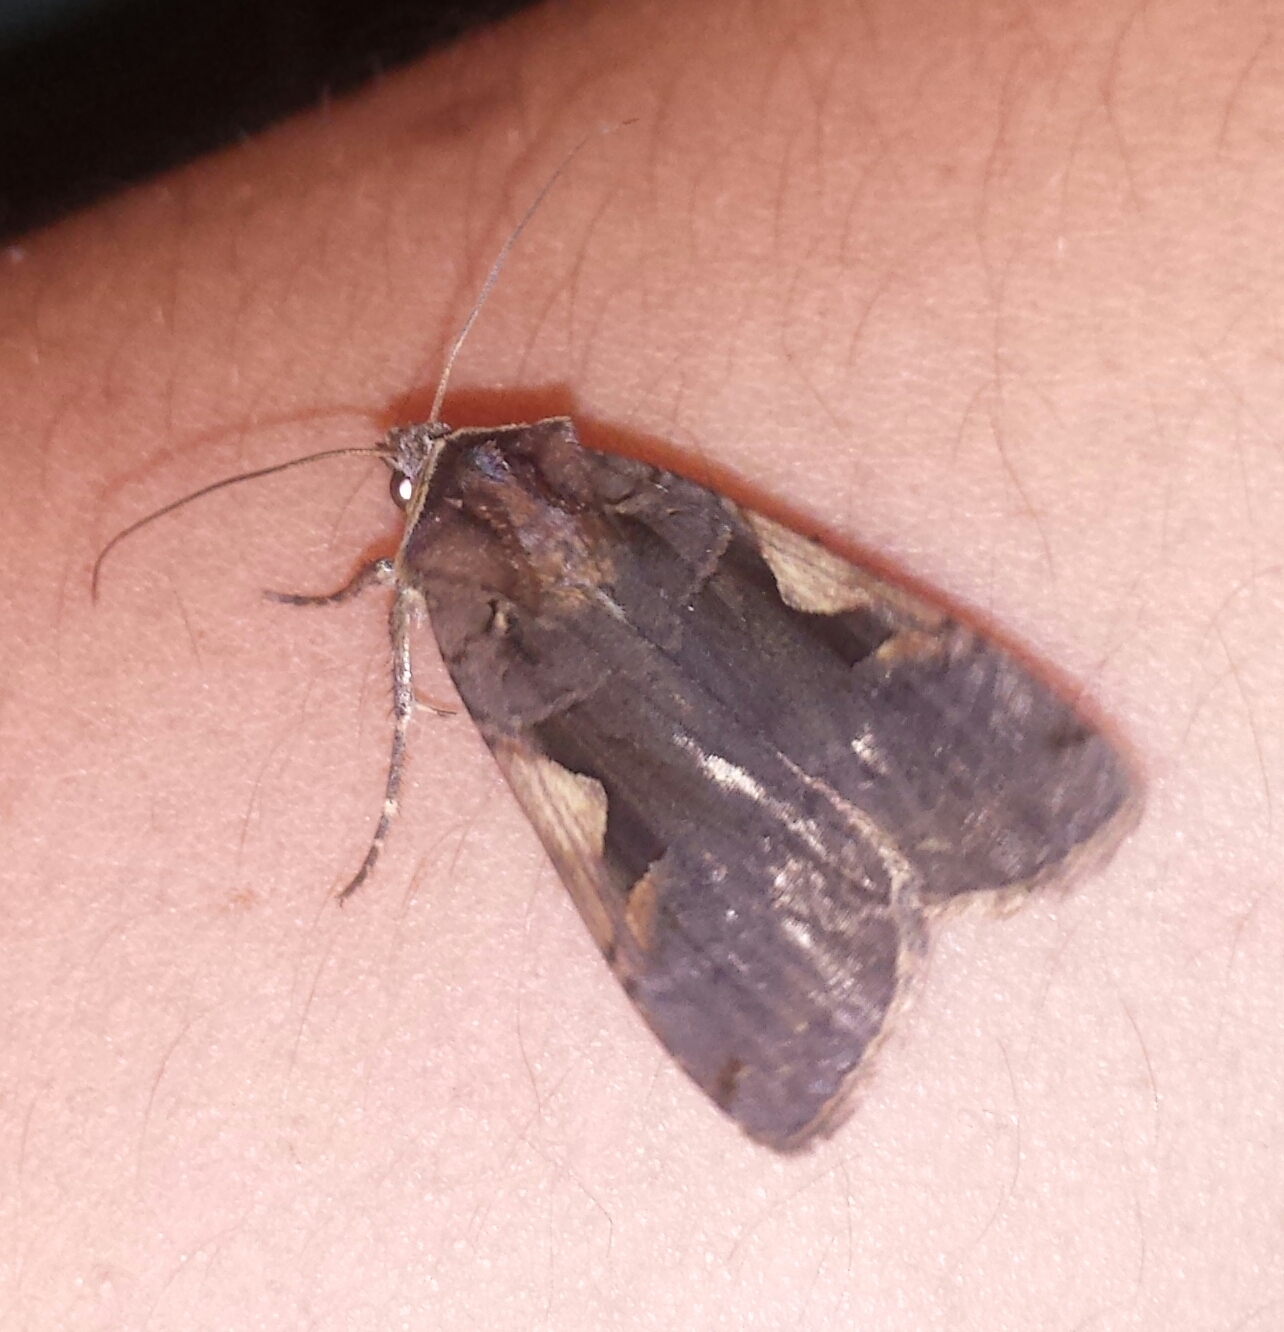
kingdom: Animalia
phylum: Arthropoda
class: Insecta
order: Lepidoptera
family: Noctuidae
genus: Xestia
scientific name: Xestia c-nigrum
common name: Setaceous hebrew character
